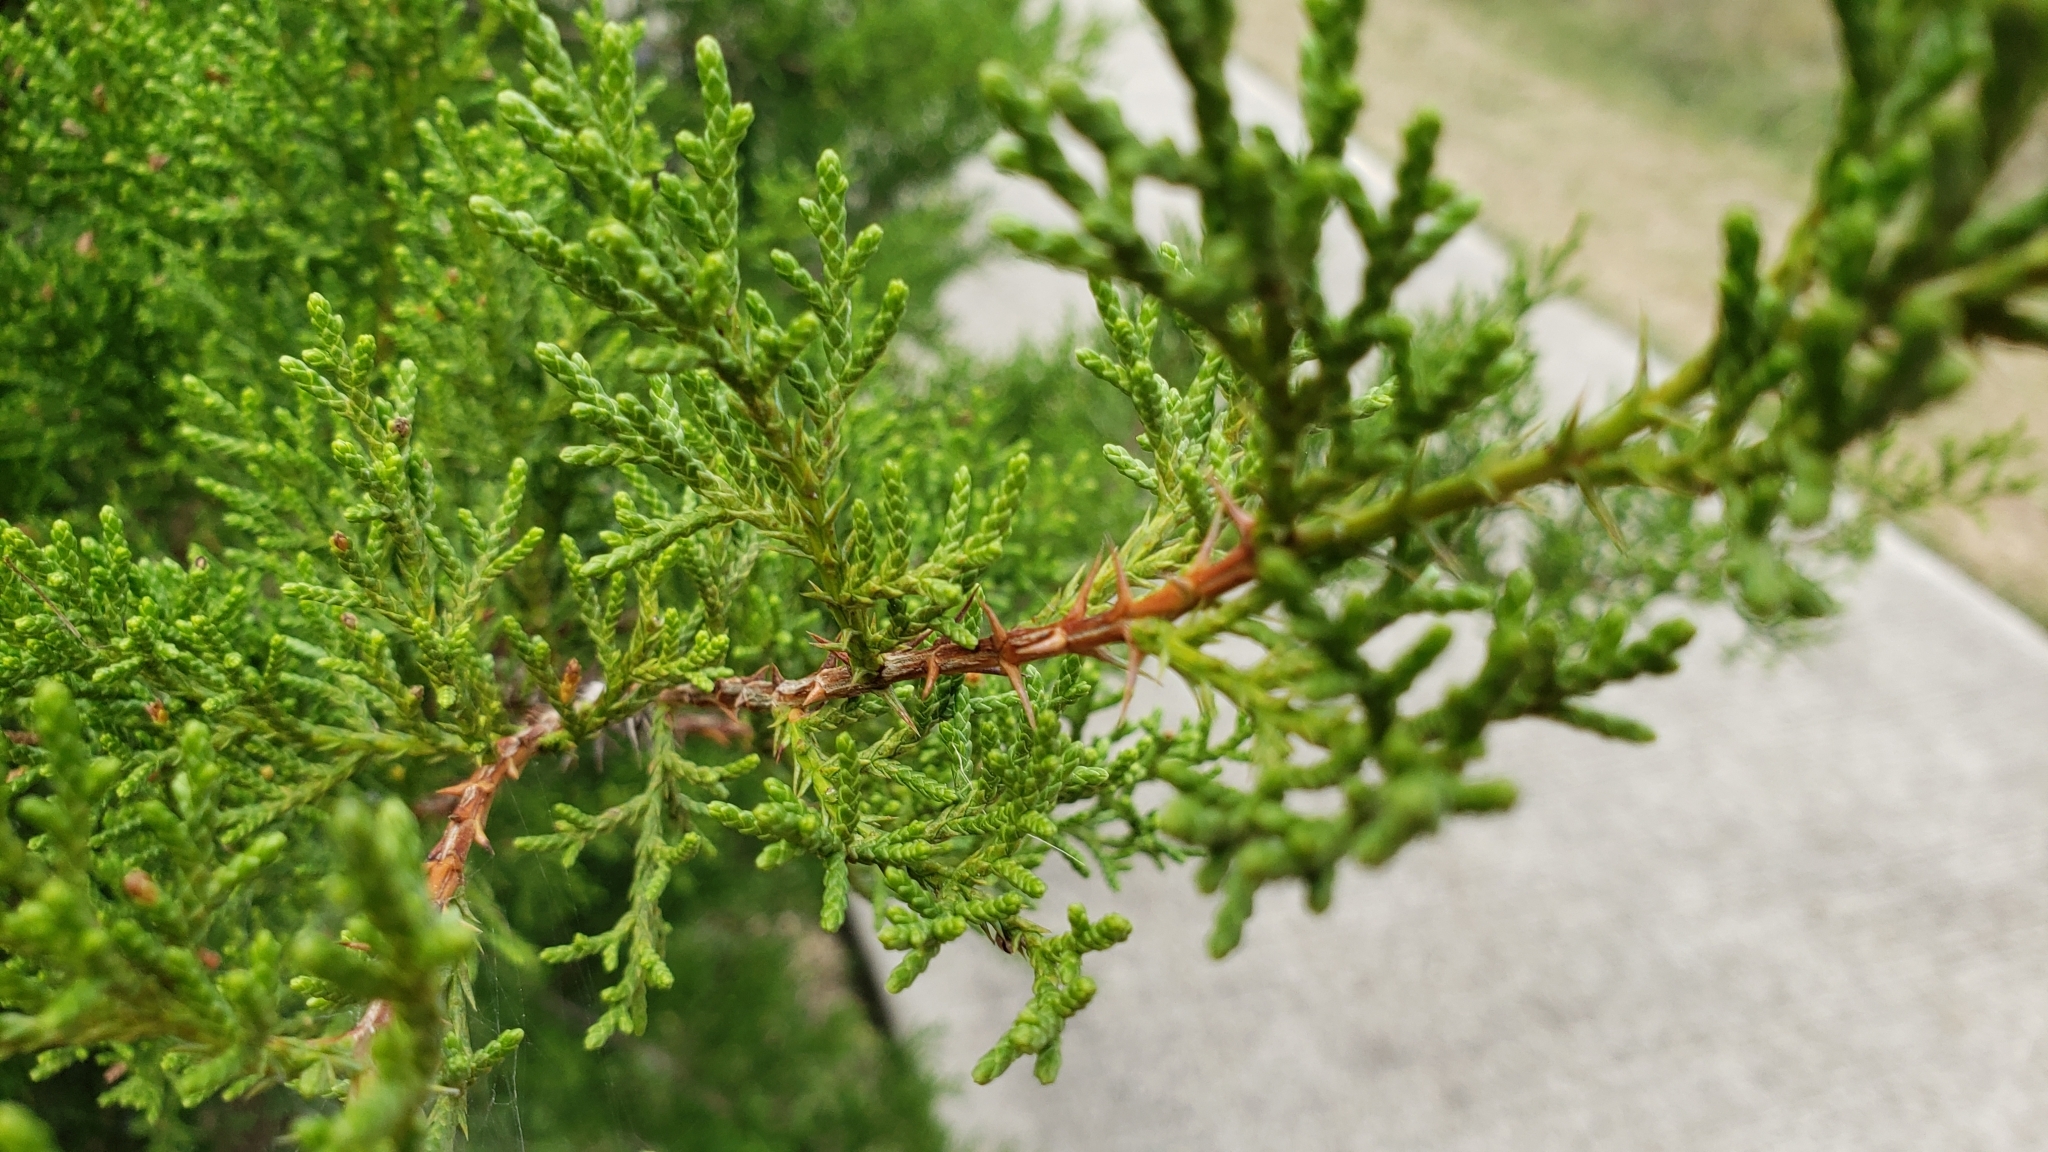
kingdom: Plantae
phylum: Tracheophyta
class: Pinopsida
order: Pinales
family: Cupressaceae
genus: Juniperus
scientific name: Juniperus ashei
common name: Mexican juniper
